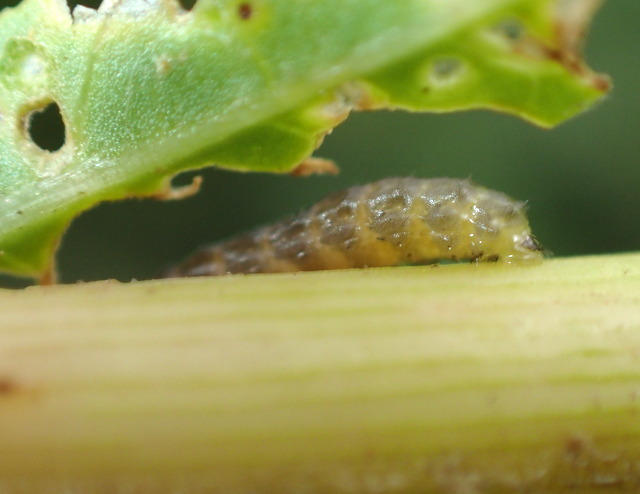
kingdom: Animalia
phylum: Arthropoda
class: Insecta
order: Coleoptera
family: Chrysomelidae
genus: Agasicles
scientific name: Agasicles hygrophila
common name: Alligatorweed flea beetle
